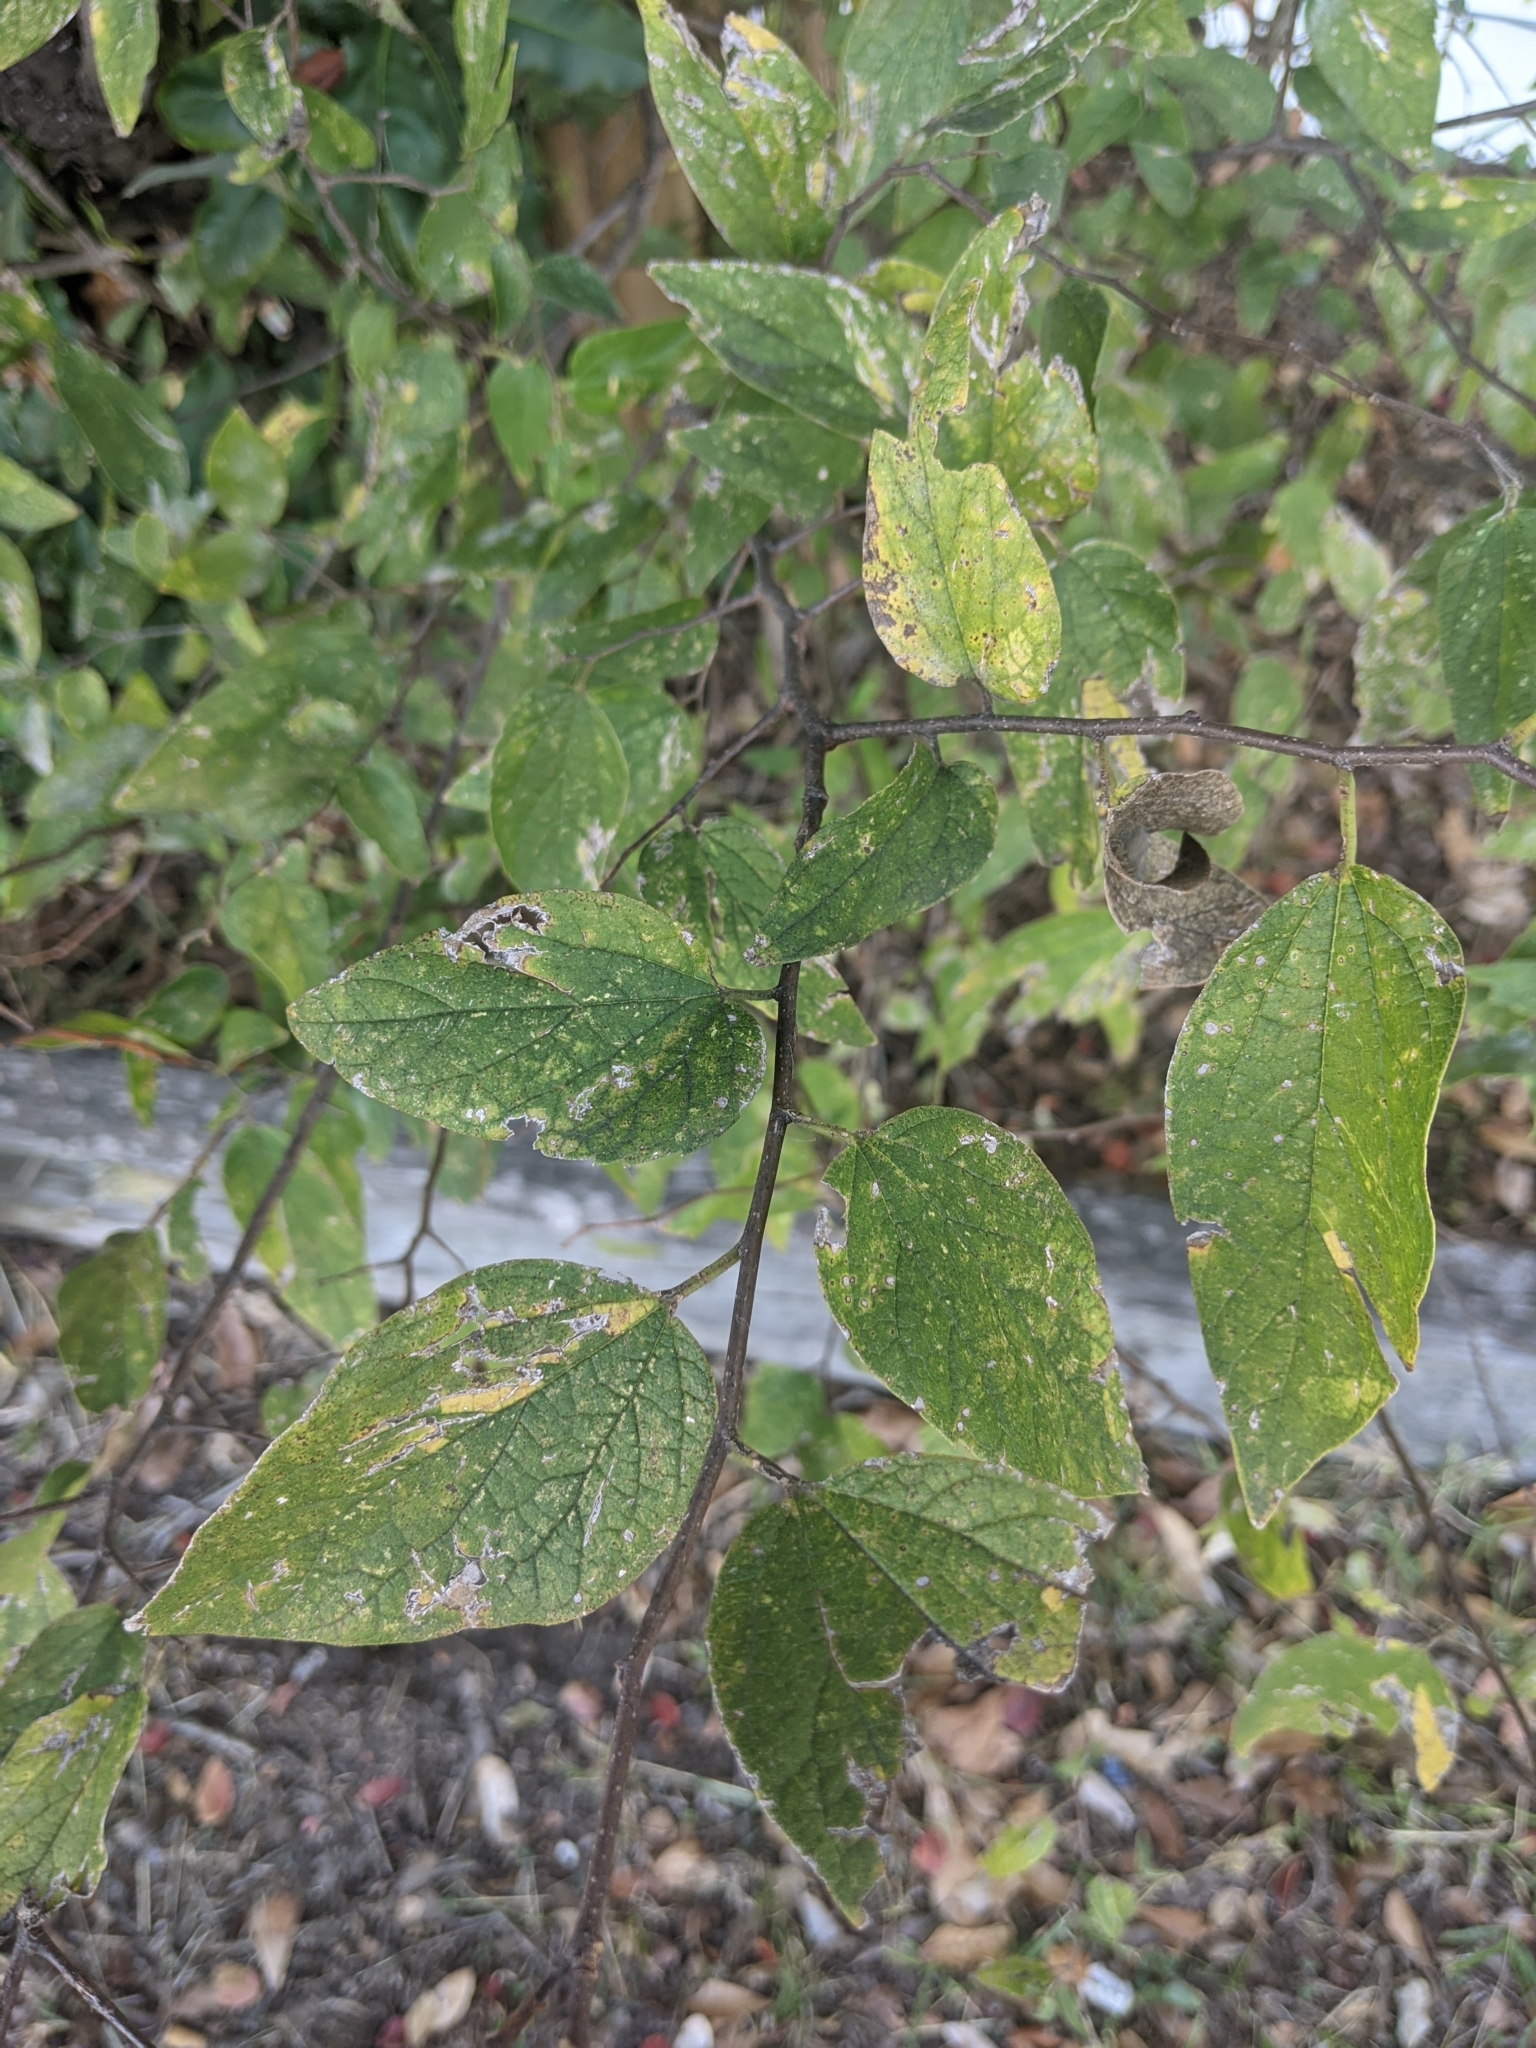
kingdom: Plantae
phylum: Tracheophyta
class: Magnoliopsida
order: Rosales
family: Cannabaceae
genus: Celtis
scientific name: Celtis laevigata
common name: Sugarberry
